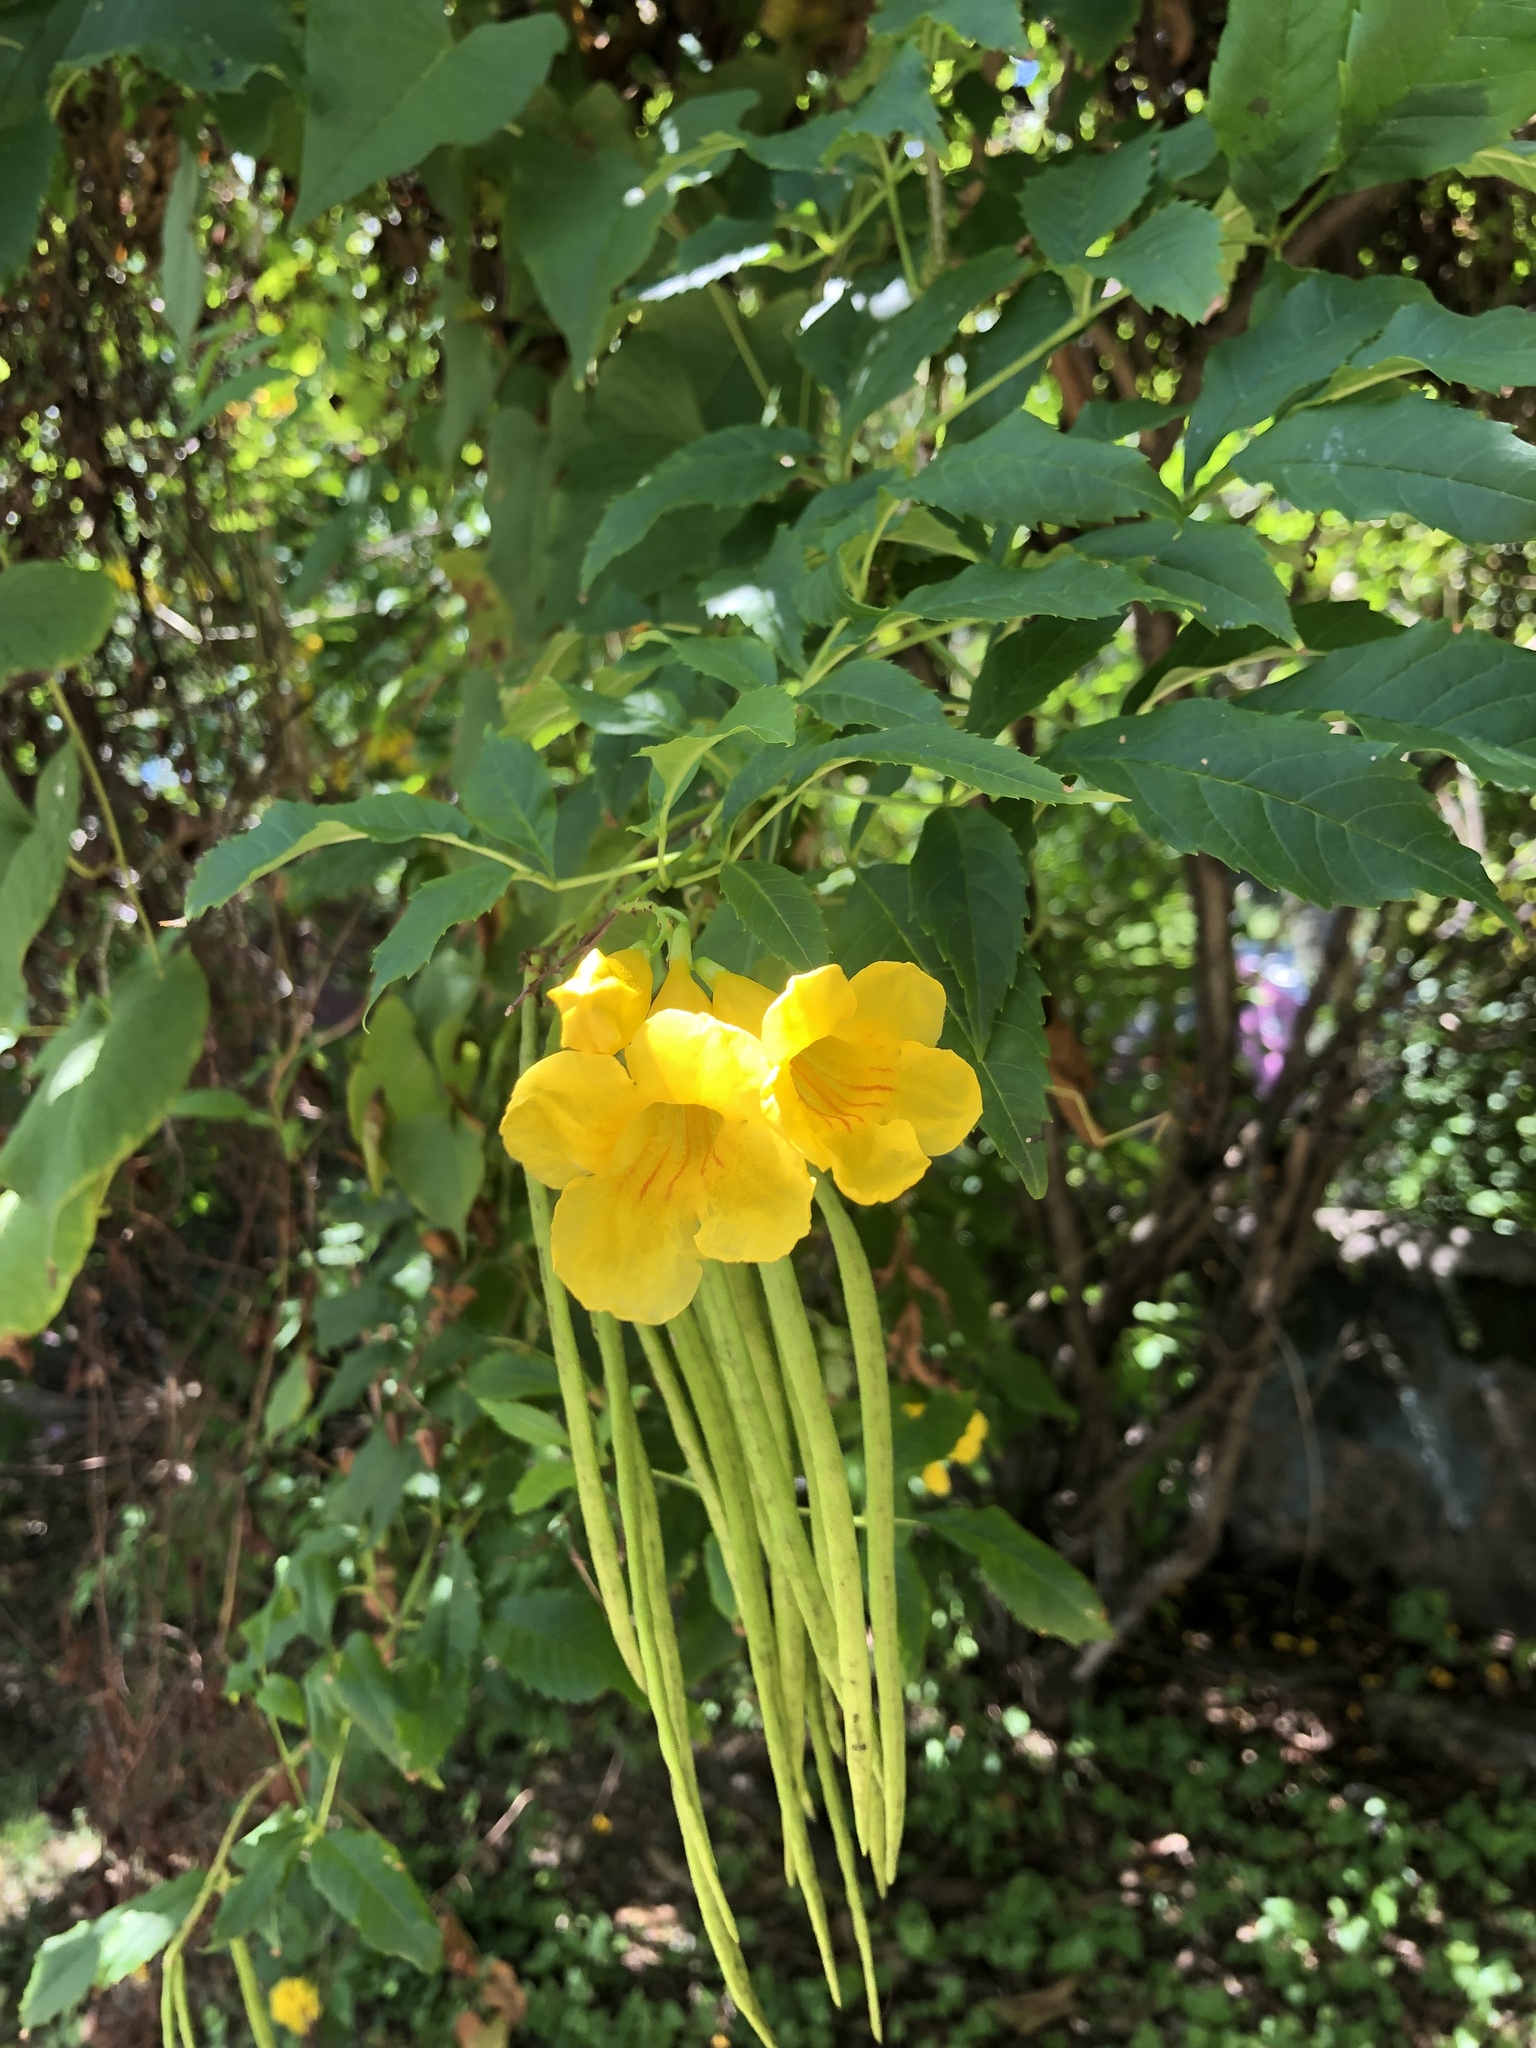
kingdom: Plantae
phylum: Tracheophyta
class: Magnoliopsida
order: Lamiales
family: Bignoniaceae
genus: Tecoma
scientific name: Tecoma stans
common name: Yellow trumpetbush
